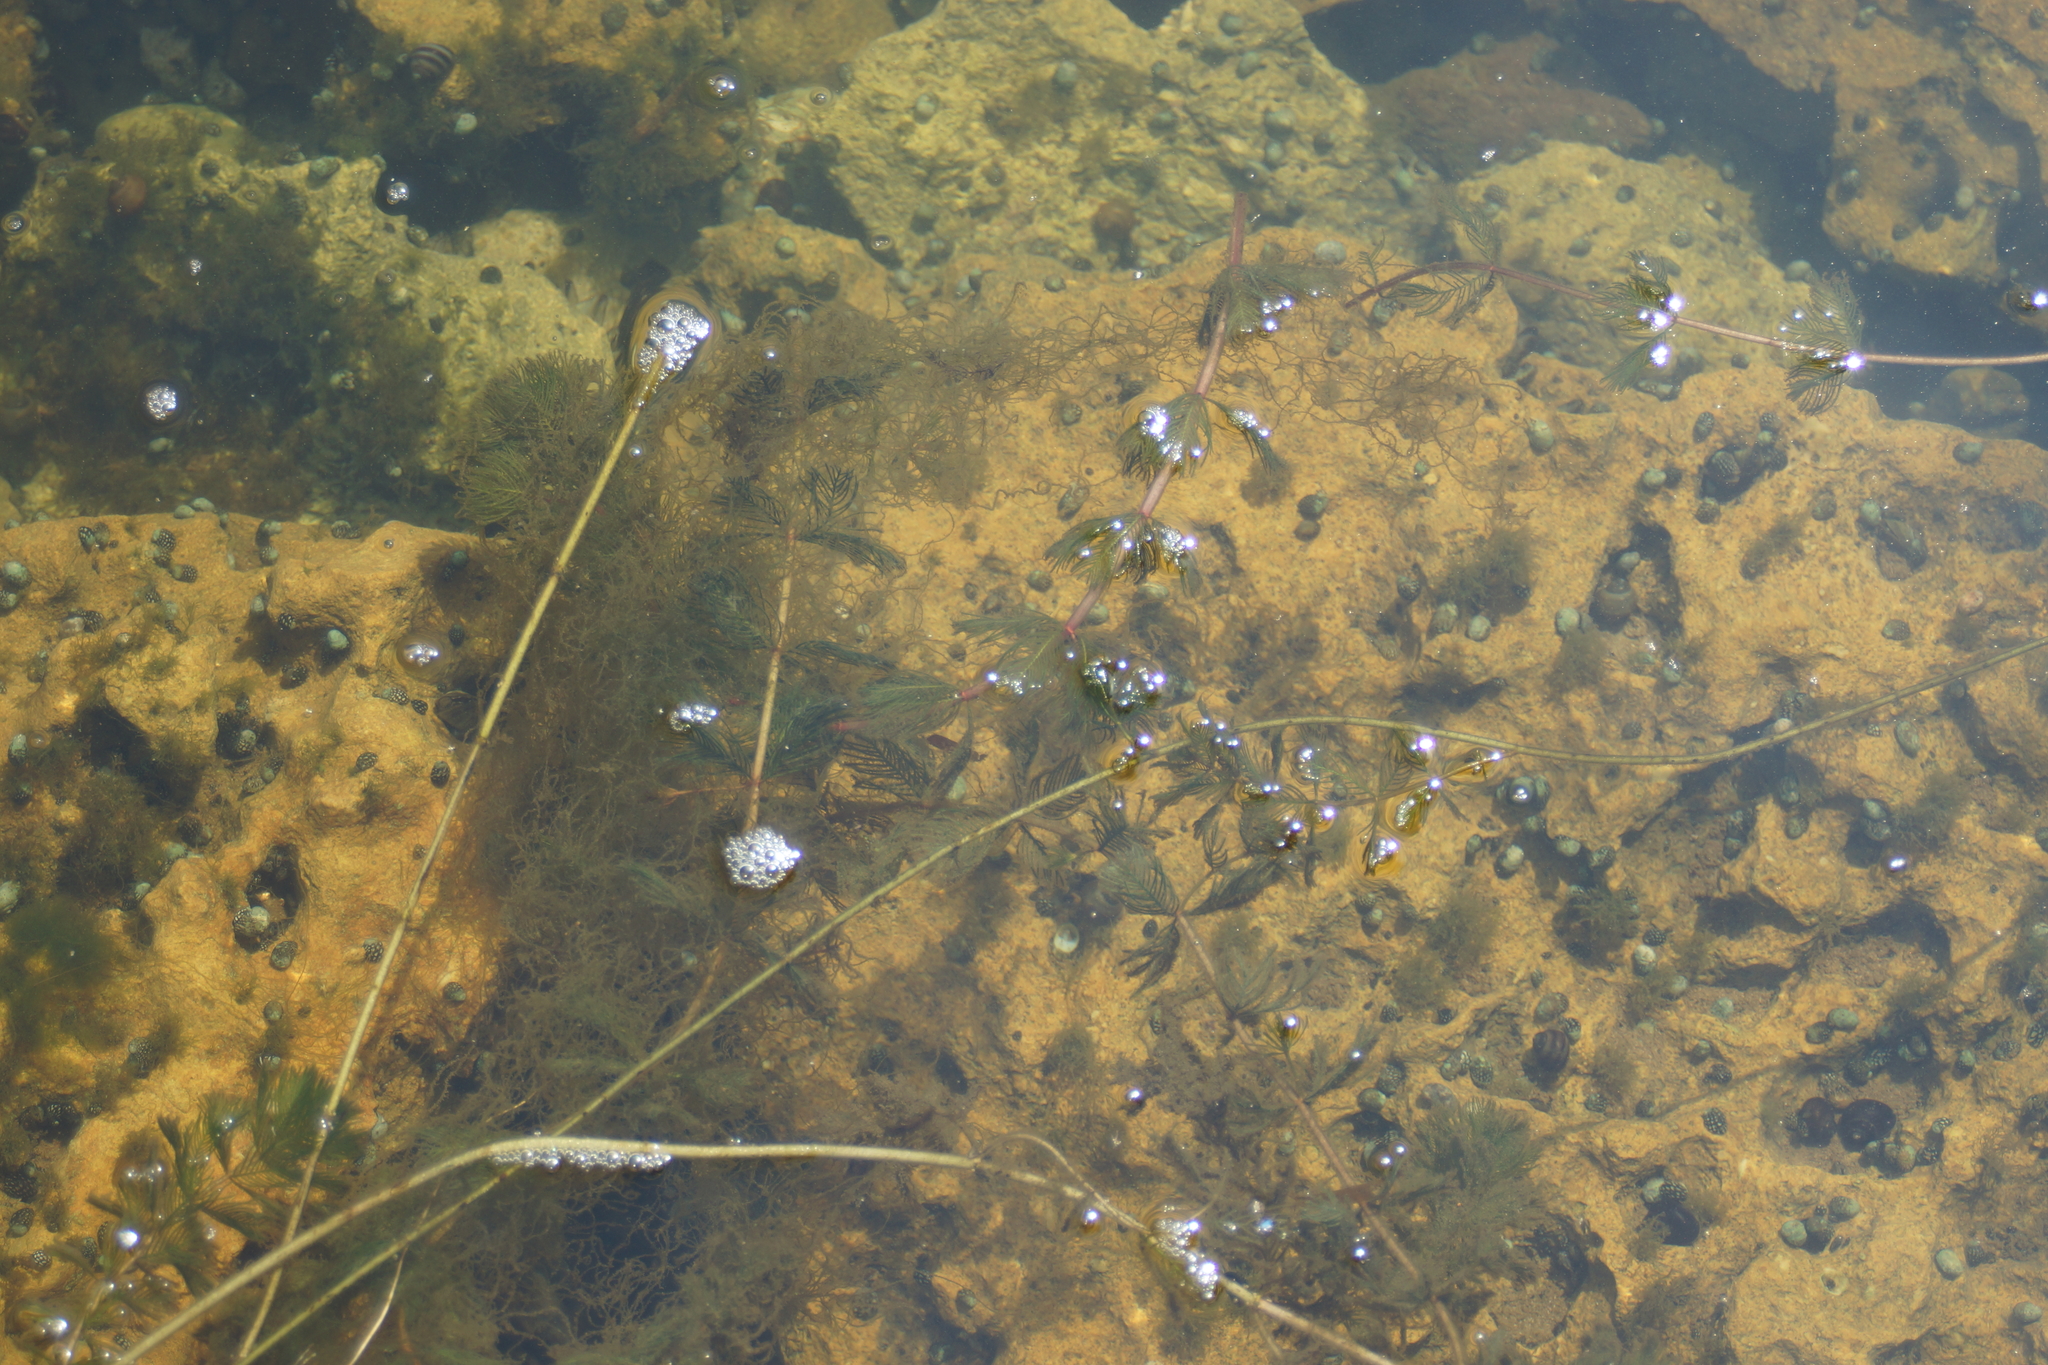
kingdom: Plantae
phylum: Tracheophyta
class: Magnoliopsida
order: Saxifragales
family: Haloragaceae
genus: Myriophyllum
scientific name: Myriophyllum spicatum
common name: Spiked water-milfoil
